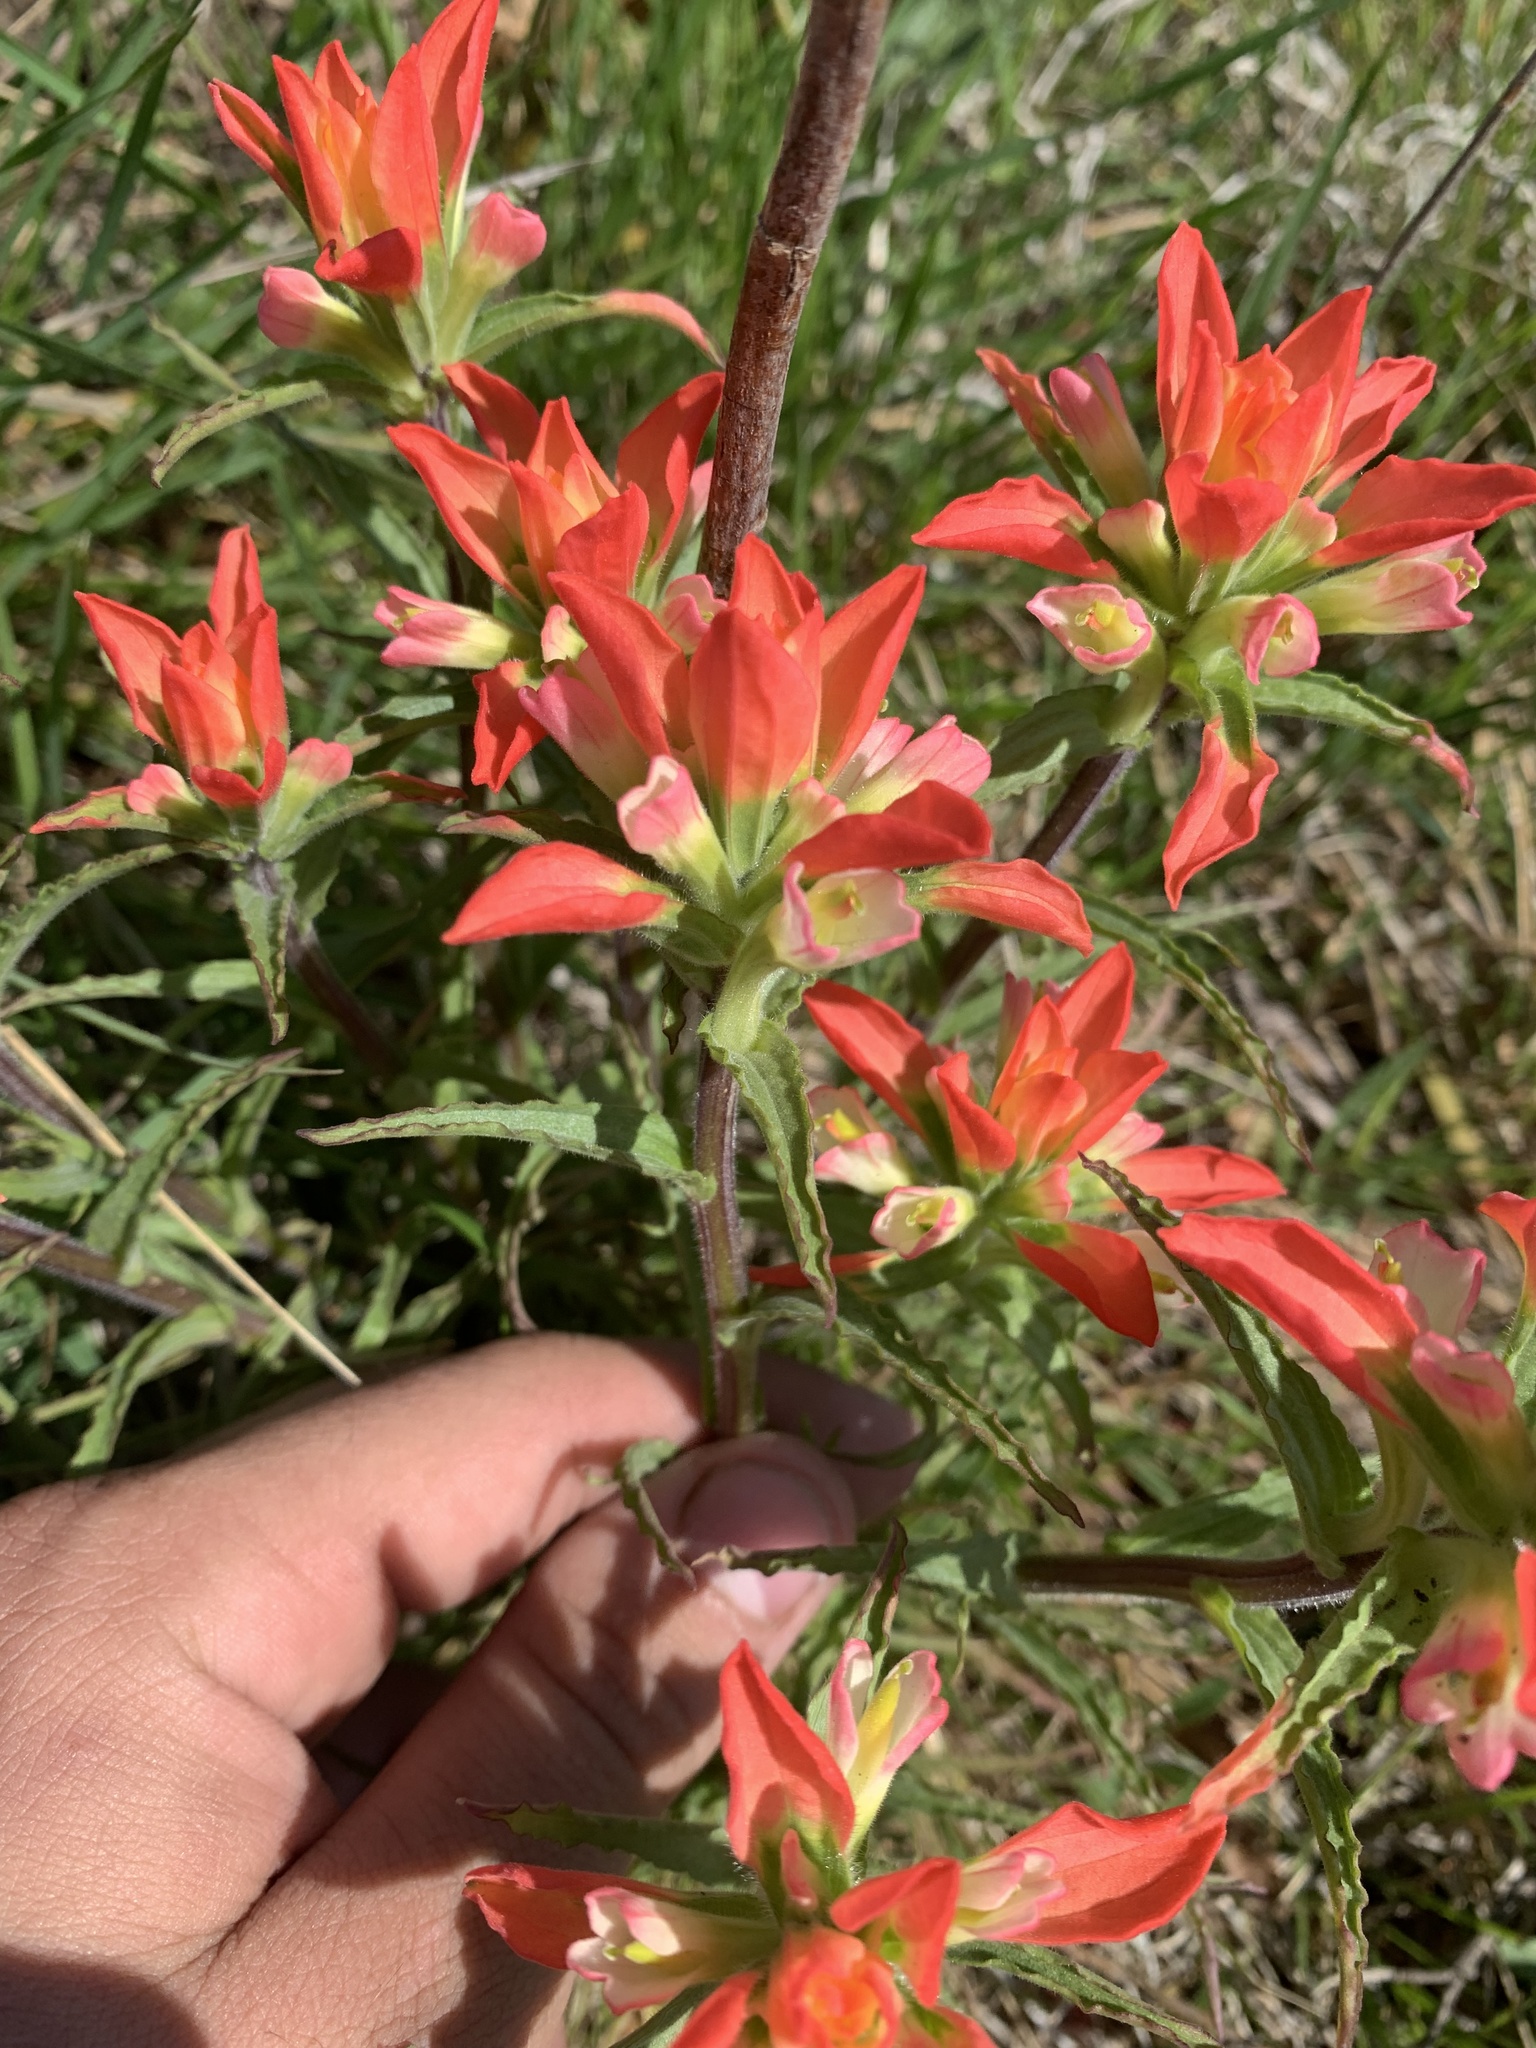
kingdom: Plantae
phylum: Tracheophyta
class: Magnoliopsida
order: Lamiales
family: Orobanchaceae
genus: Castilleja
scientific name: Castilleja indivisa
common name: Texas paintbrush
